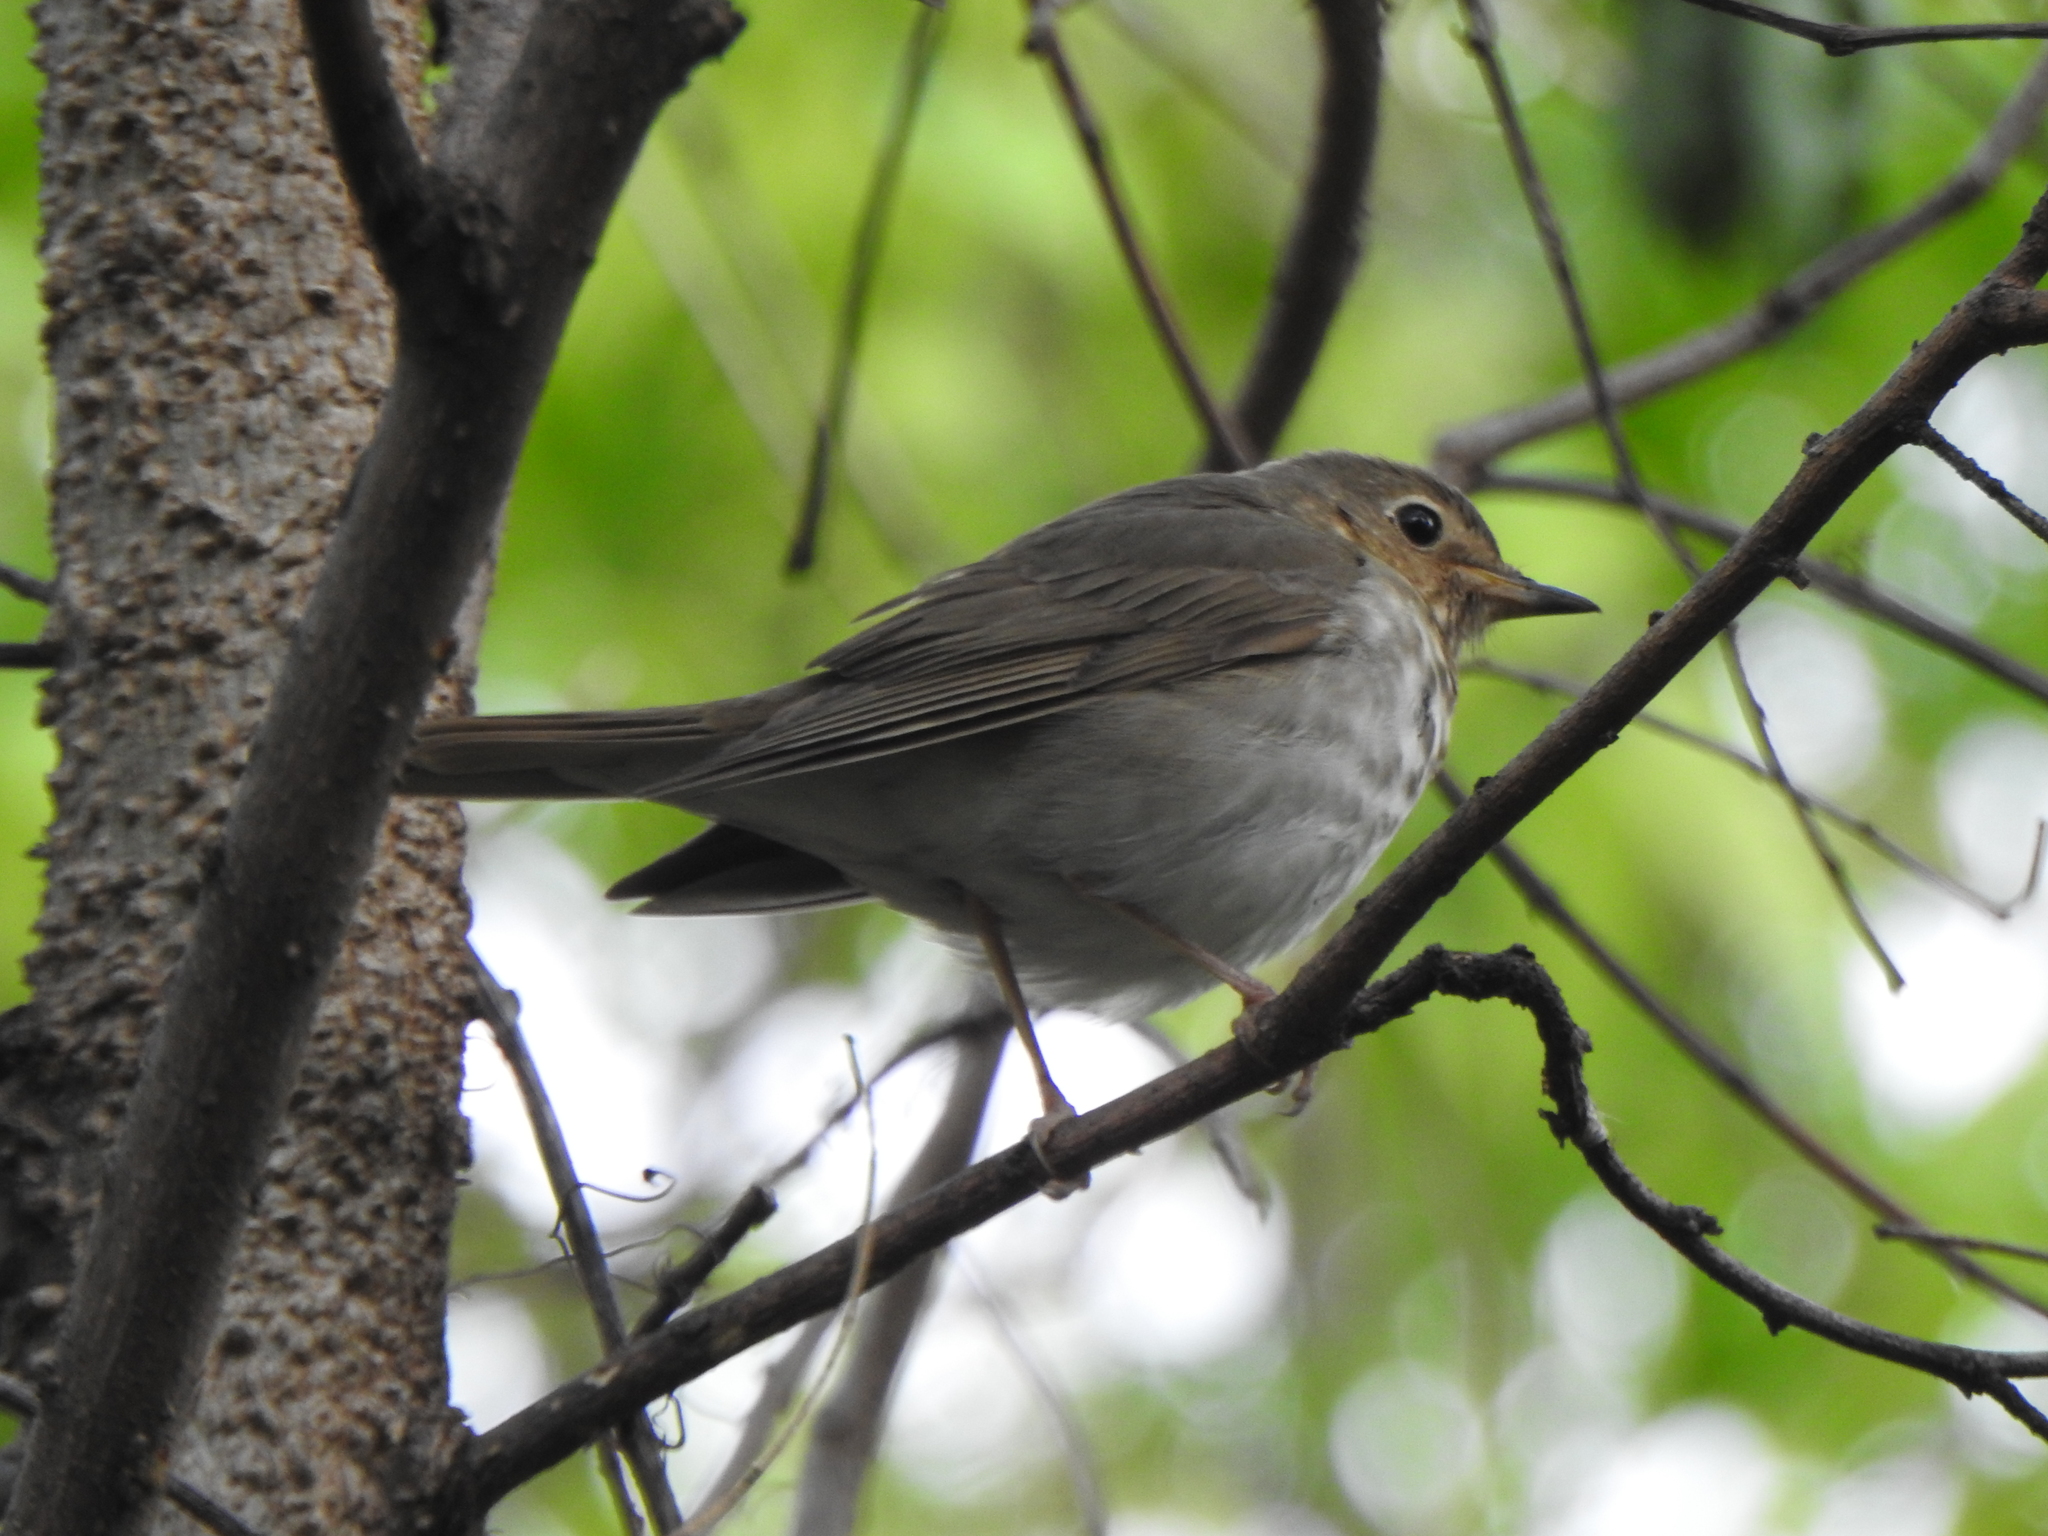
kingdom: Animalia
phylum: Chordata
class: Aves
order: Passeriformes
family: Turdidae
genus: Catharus
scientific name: Catharus ustulatus
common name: Swainson's thrush
